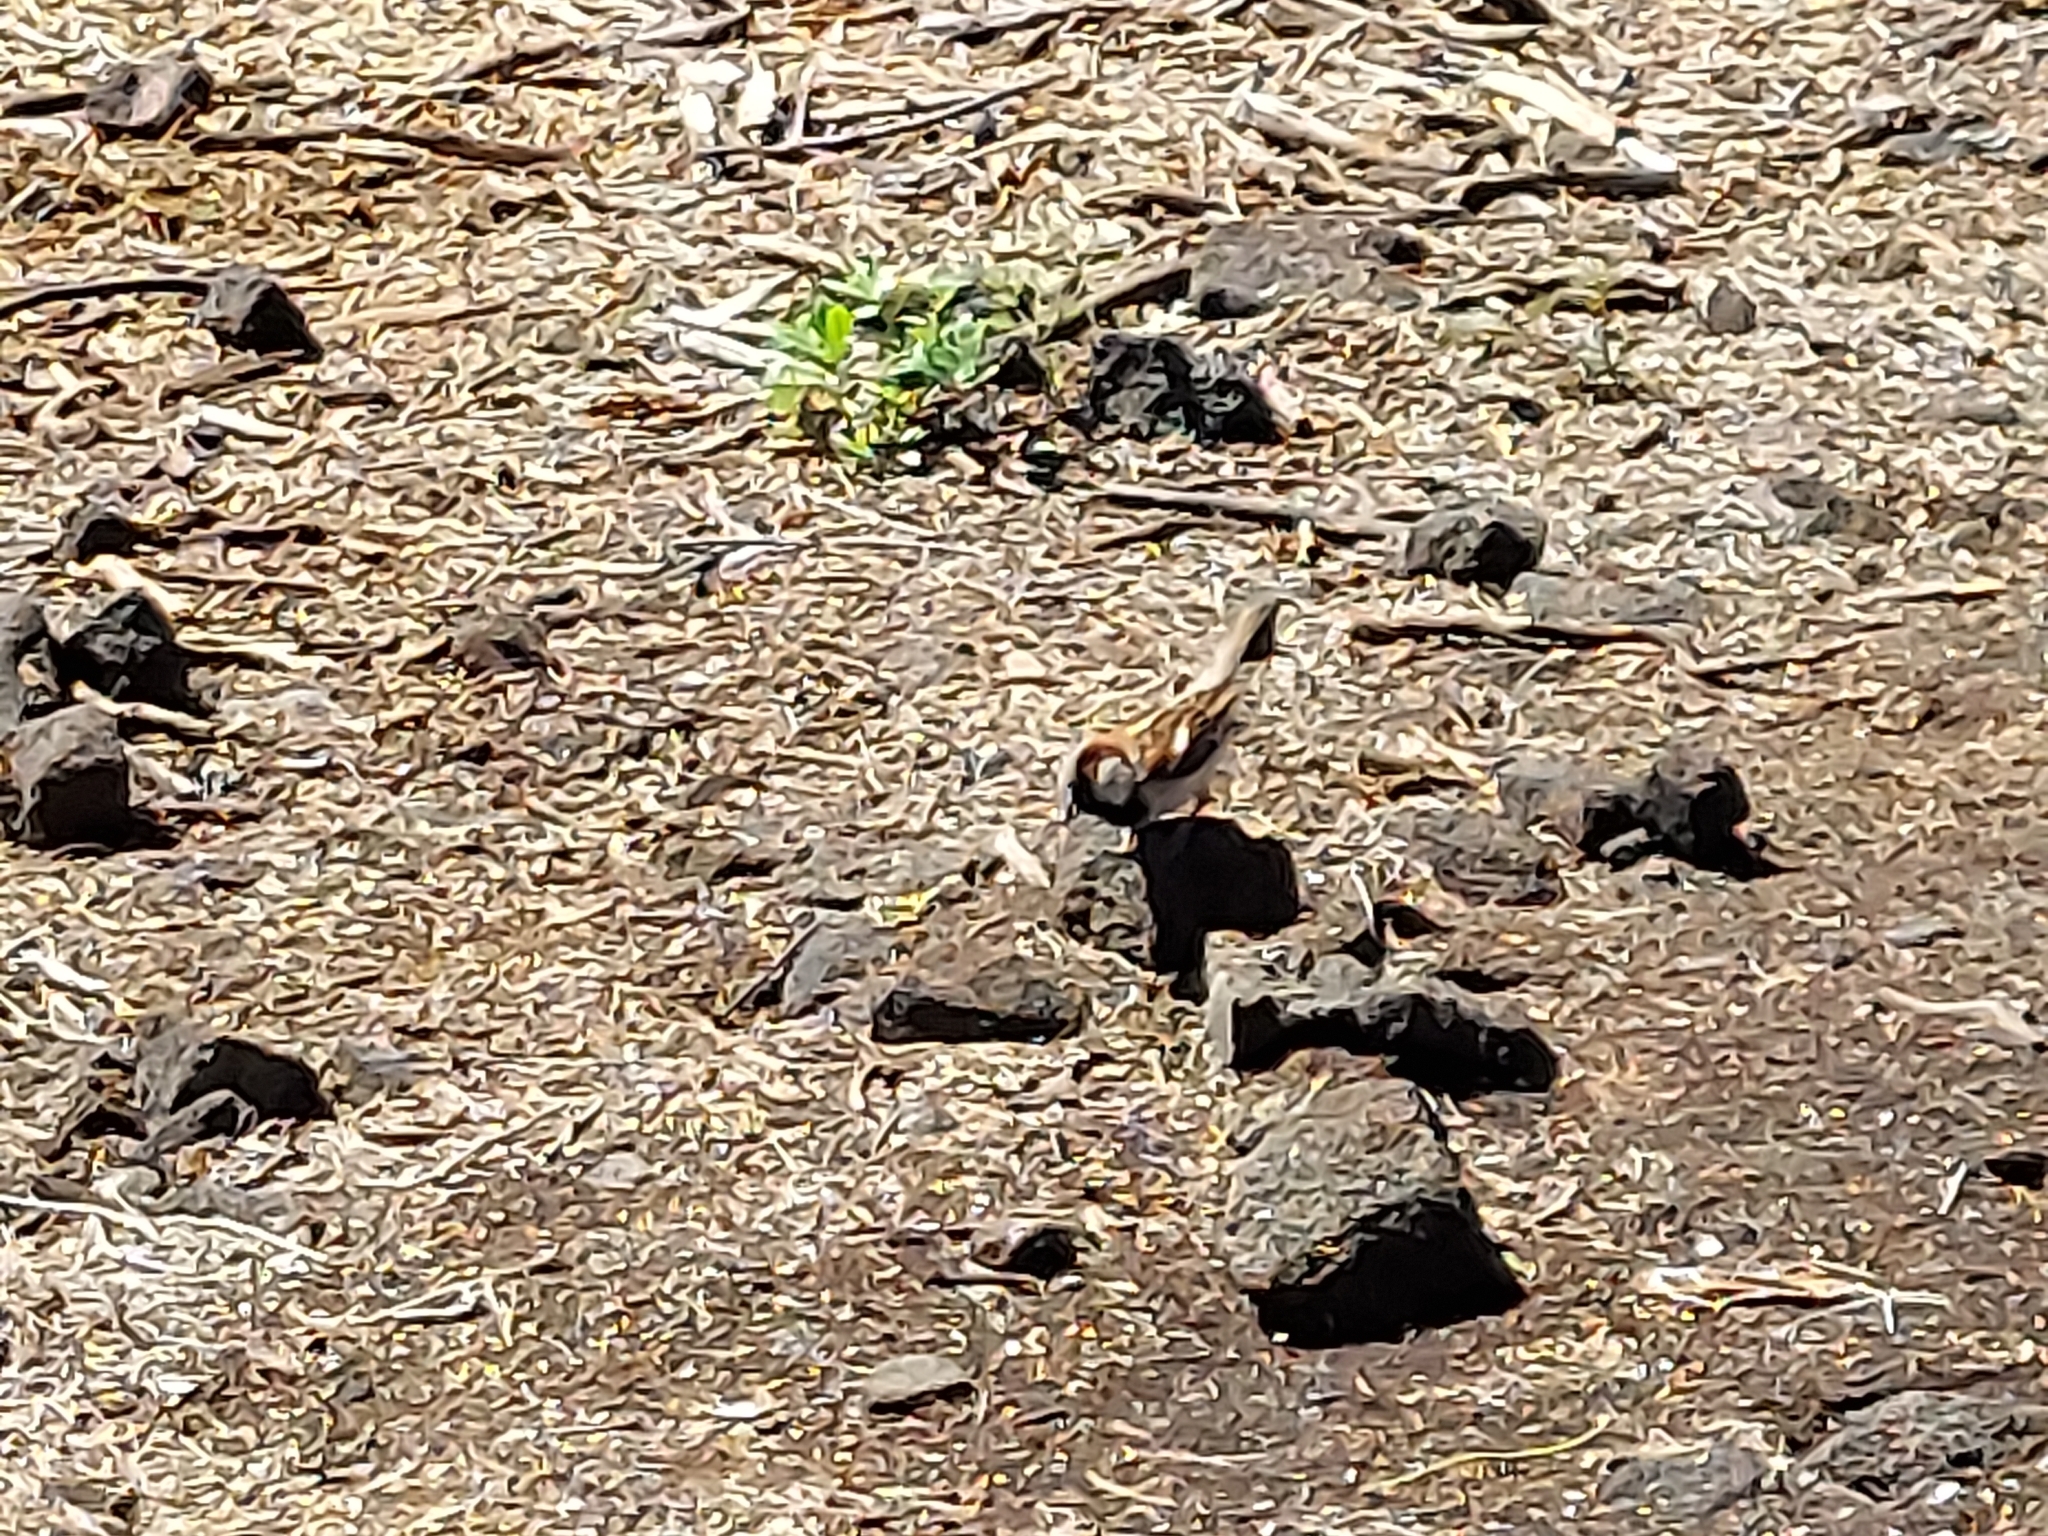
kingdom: Animalia
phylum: Chordata
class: Aves
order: Passeriformes
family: Passeridae
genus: Passer
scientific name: Passer domesticus
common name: House sparrow
